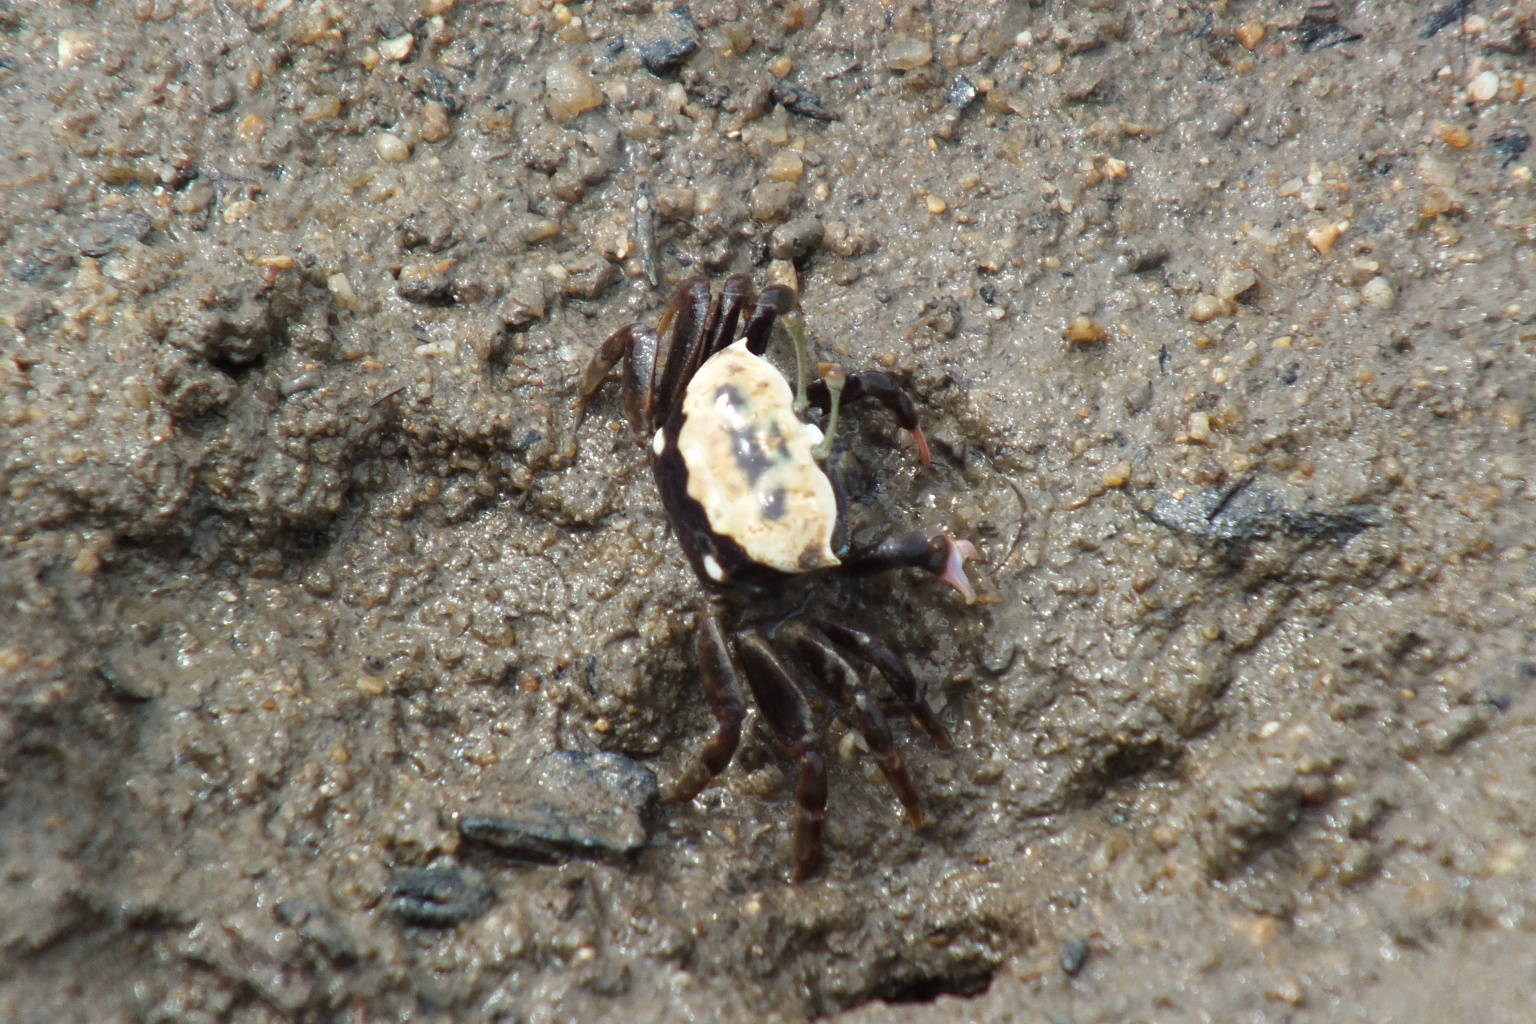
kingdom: Animalia
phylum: Arthropoda
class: Malacostraca
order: Decapoda
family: Ocypodidae
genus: Tubuca
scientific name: Tubuca polita
